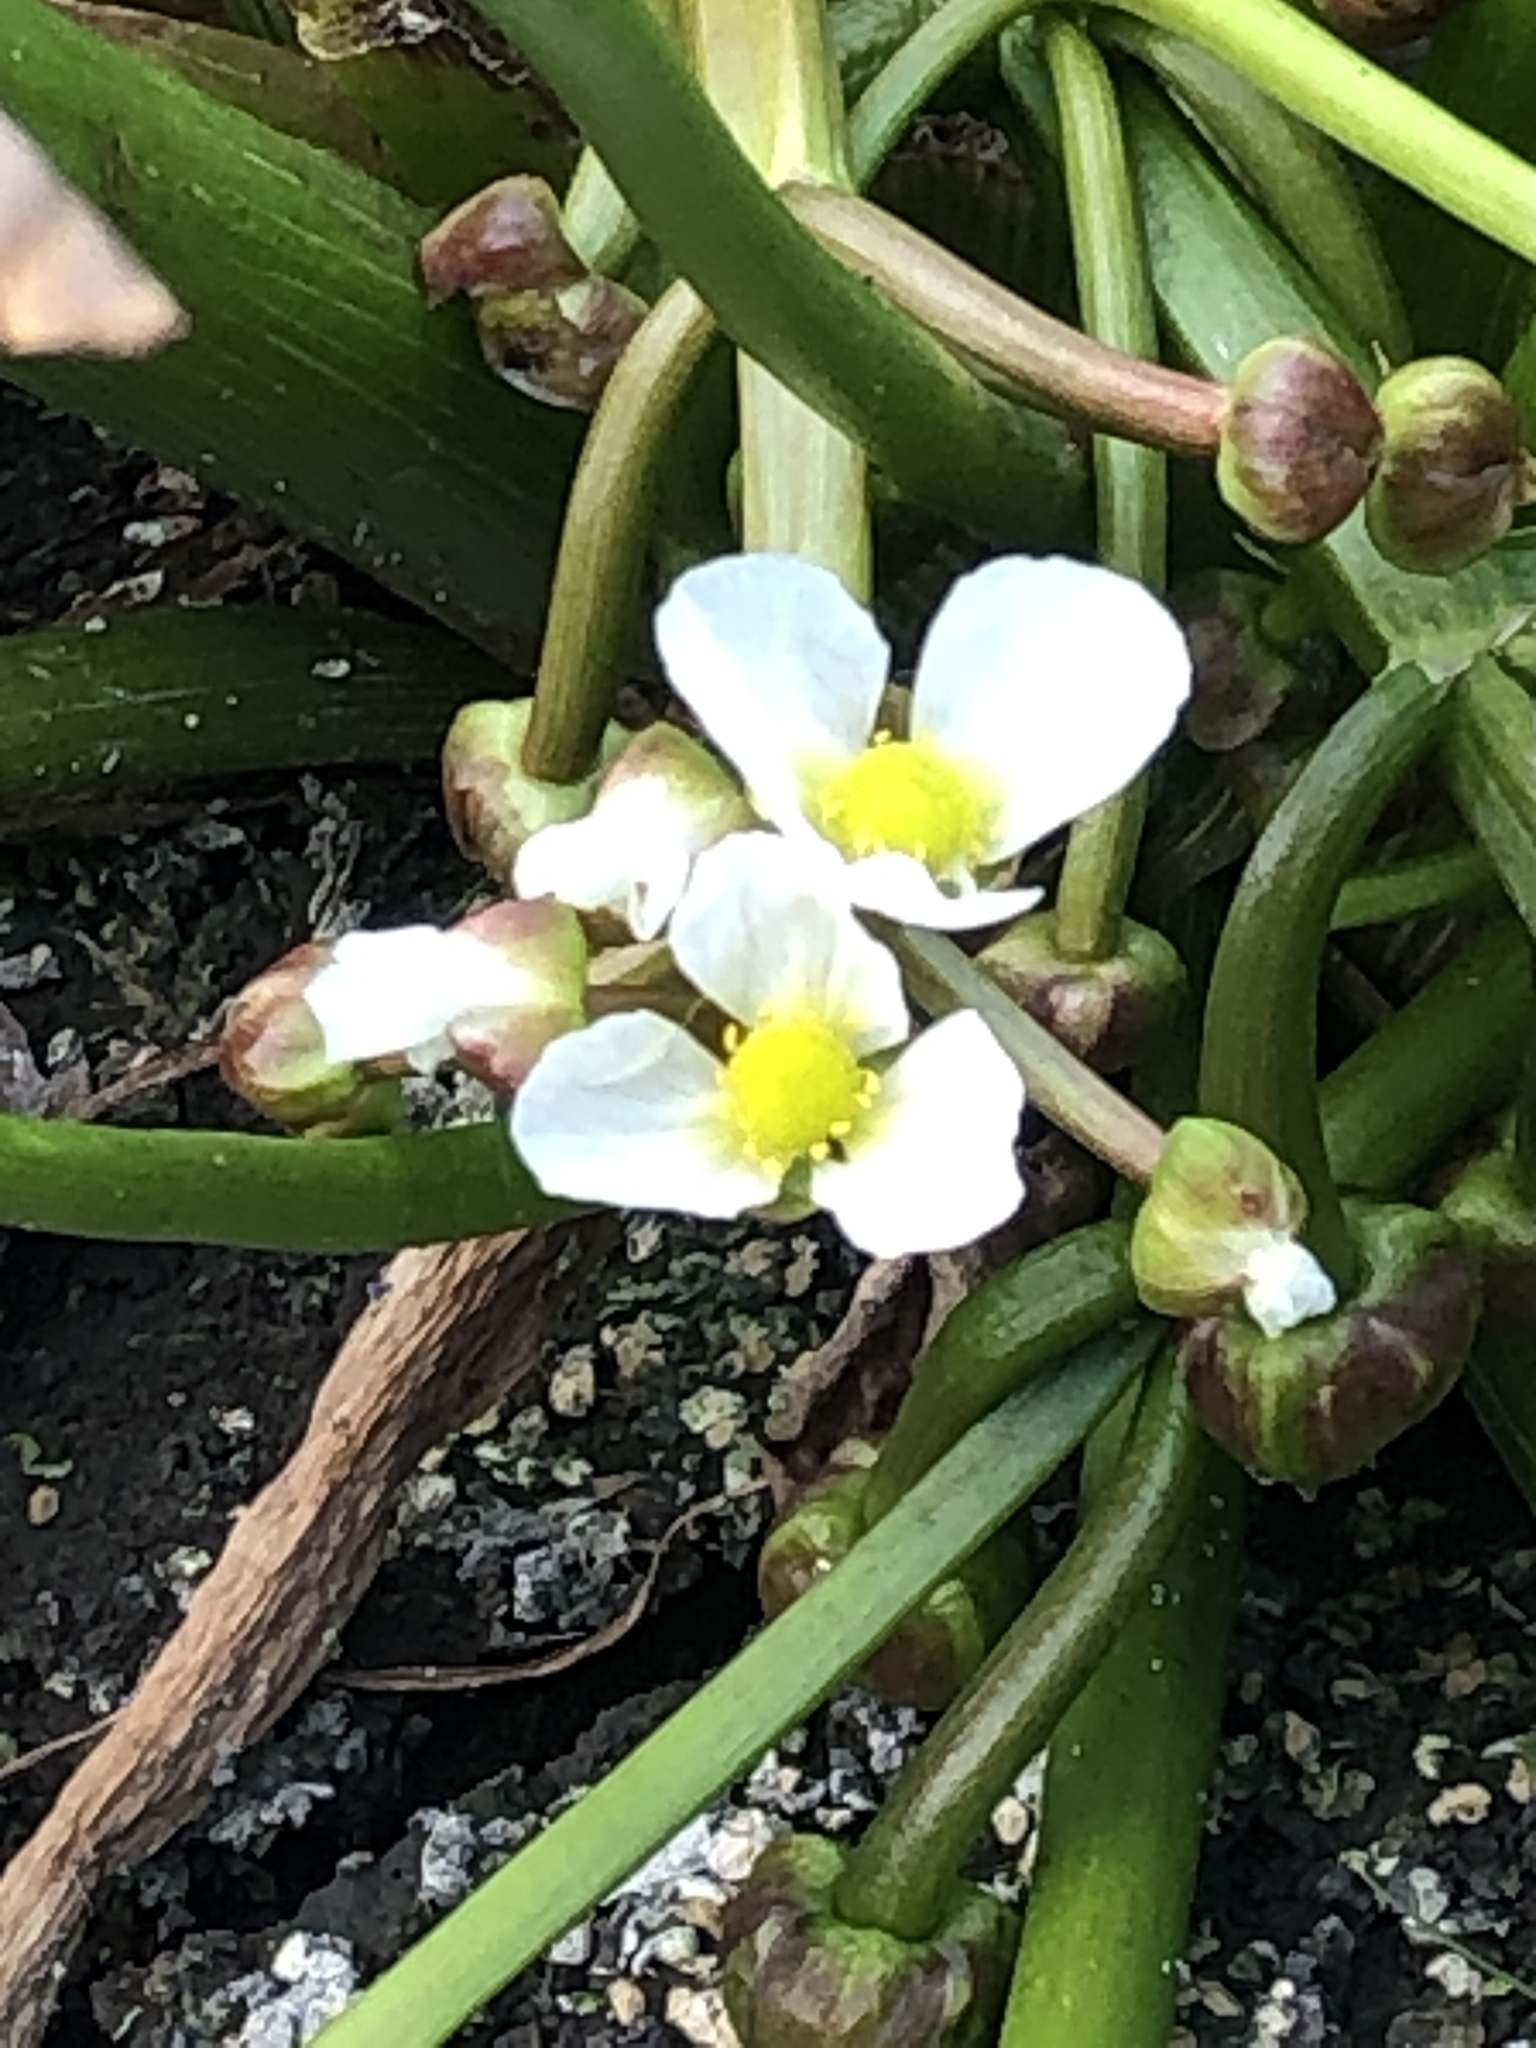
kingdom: Plantae
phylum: Tracheophyta
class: Liliopsida
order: Alismatales
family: Alismataceae
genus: Sagittaria
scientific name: Sagittaria calycina
